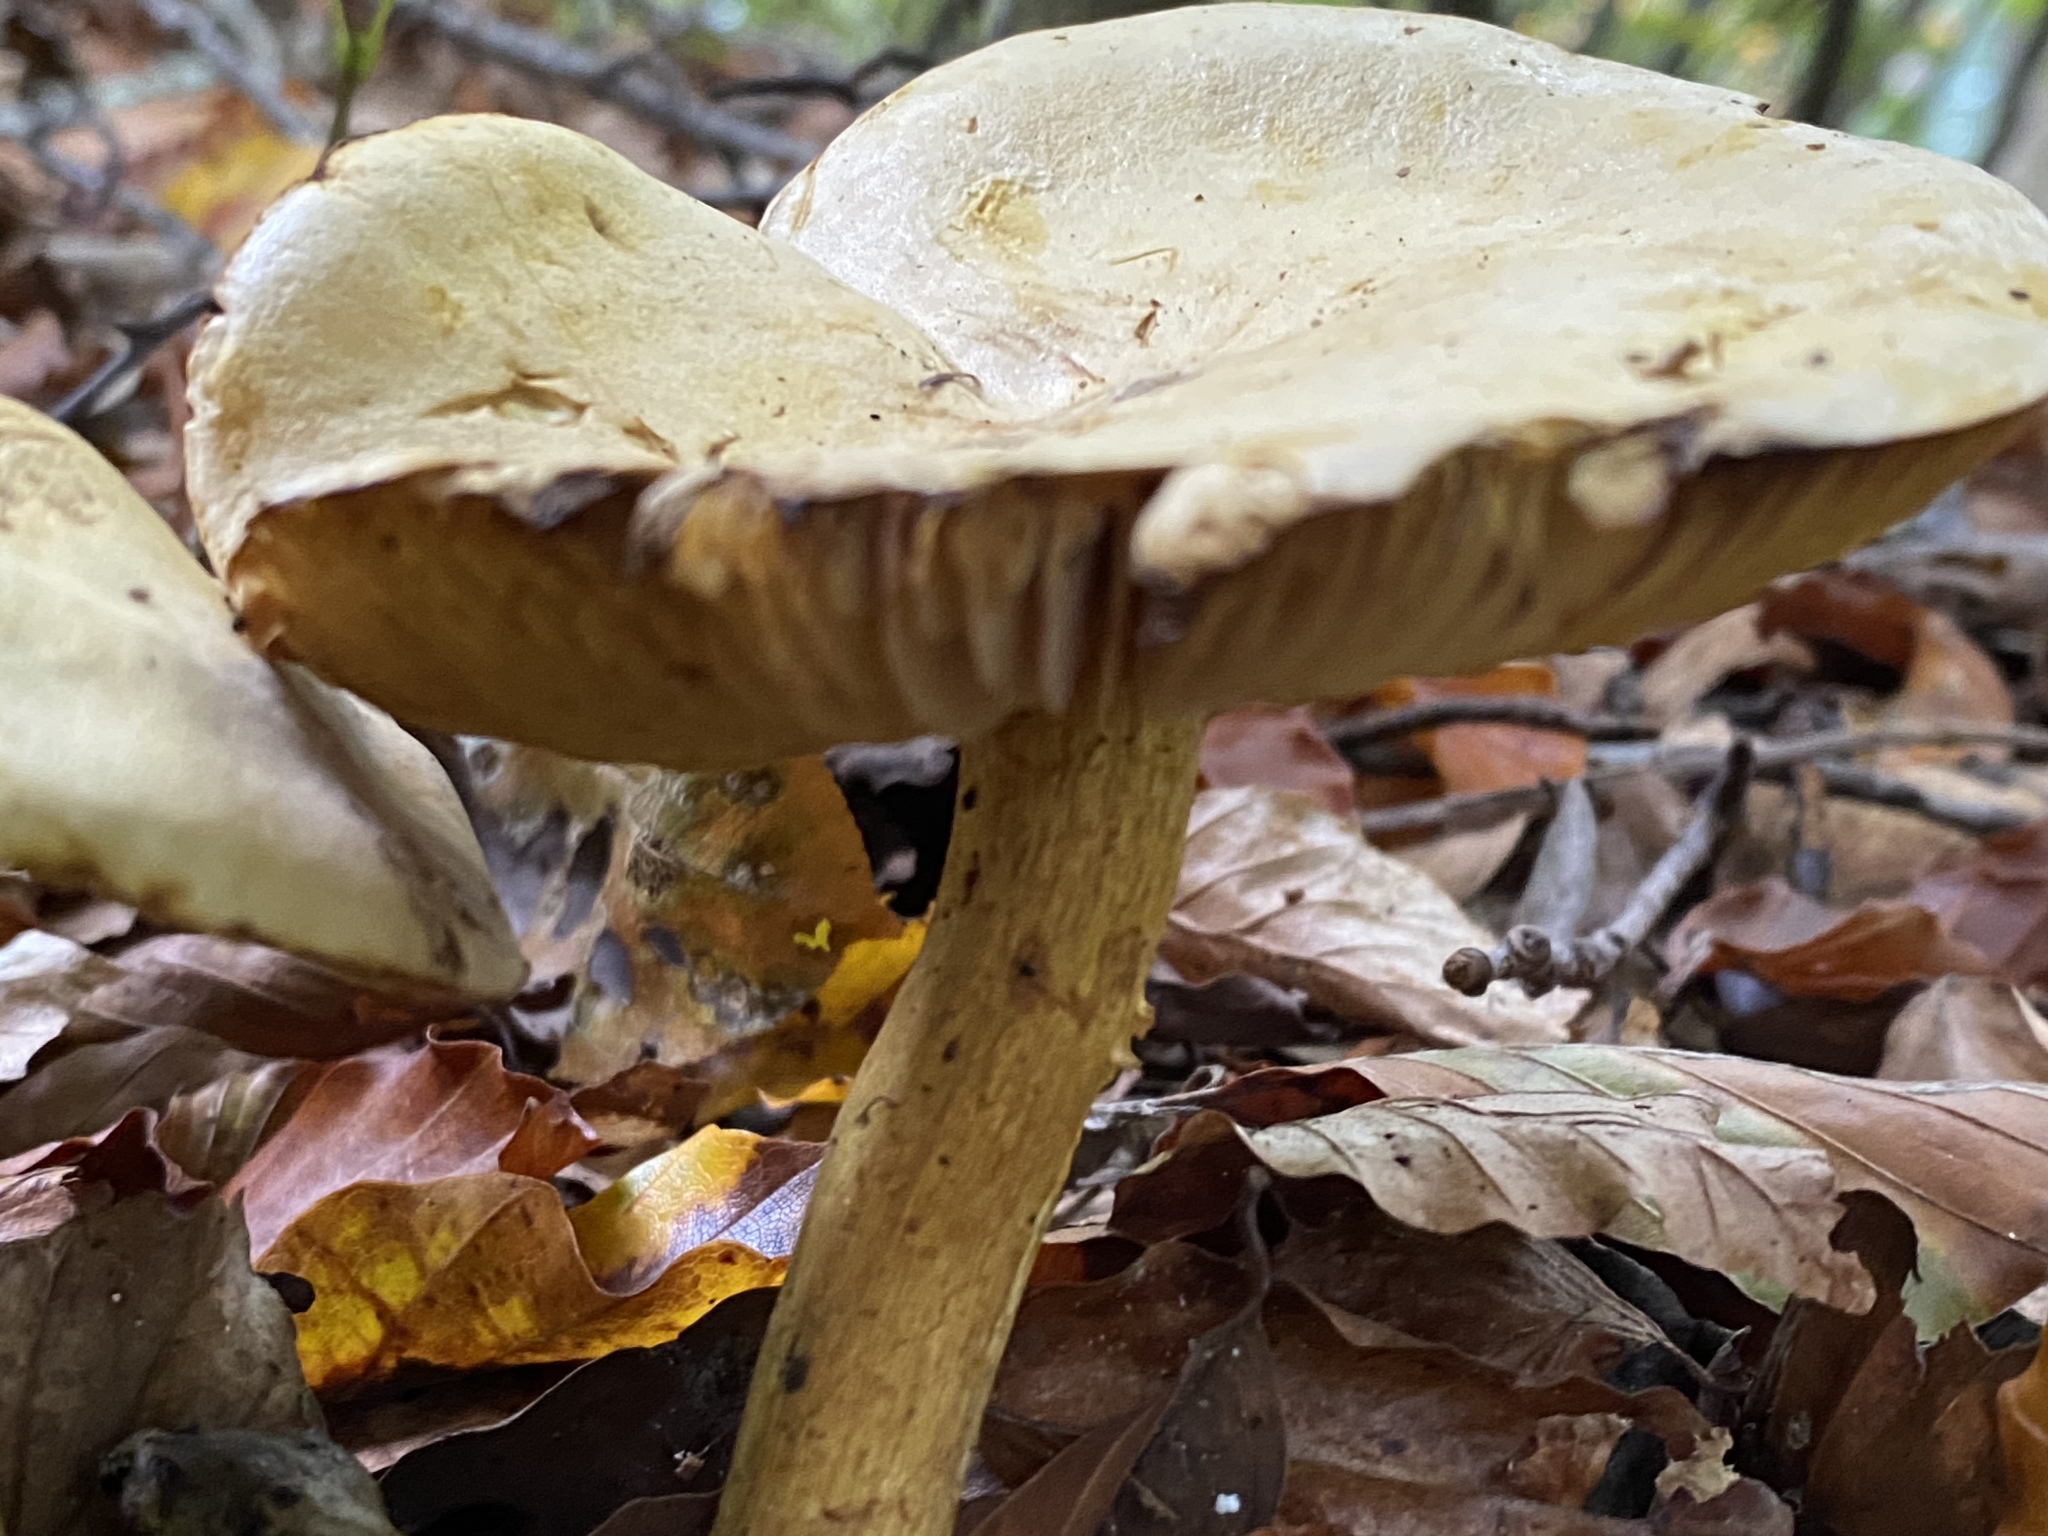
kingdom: Fungi
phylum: Basidiomycota
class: Agaricomycetes
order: Agaricales
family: Tricholomataceae
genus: Tricholoma
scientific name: Tricholoma sulphureum
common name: Stinky knight
